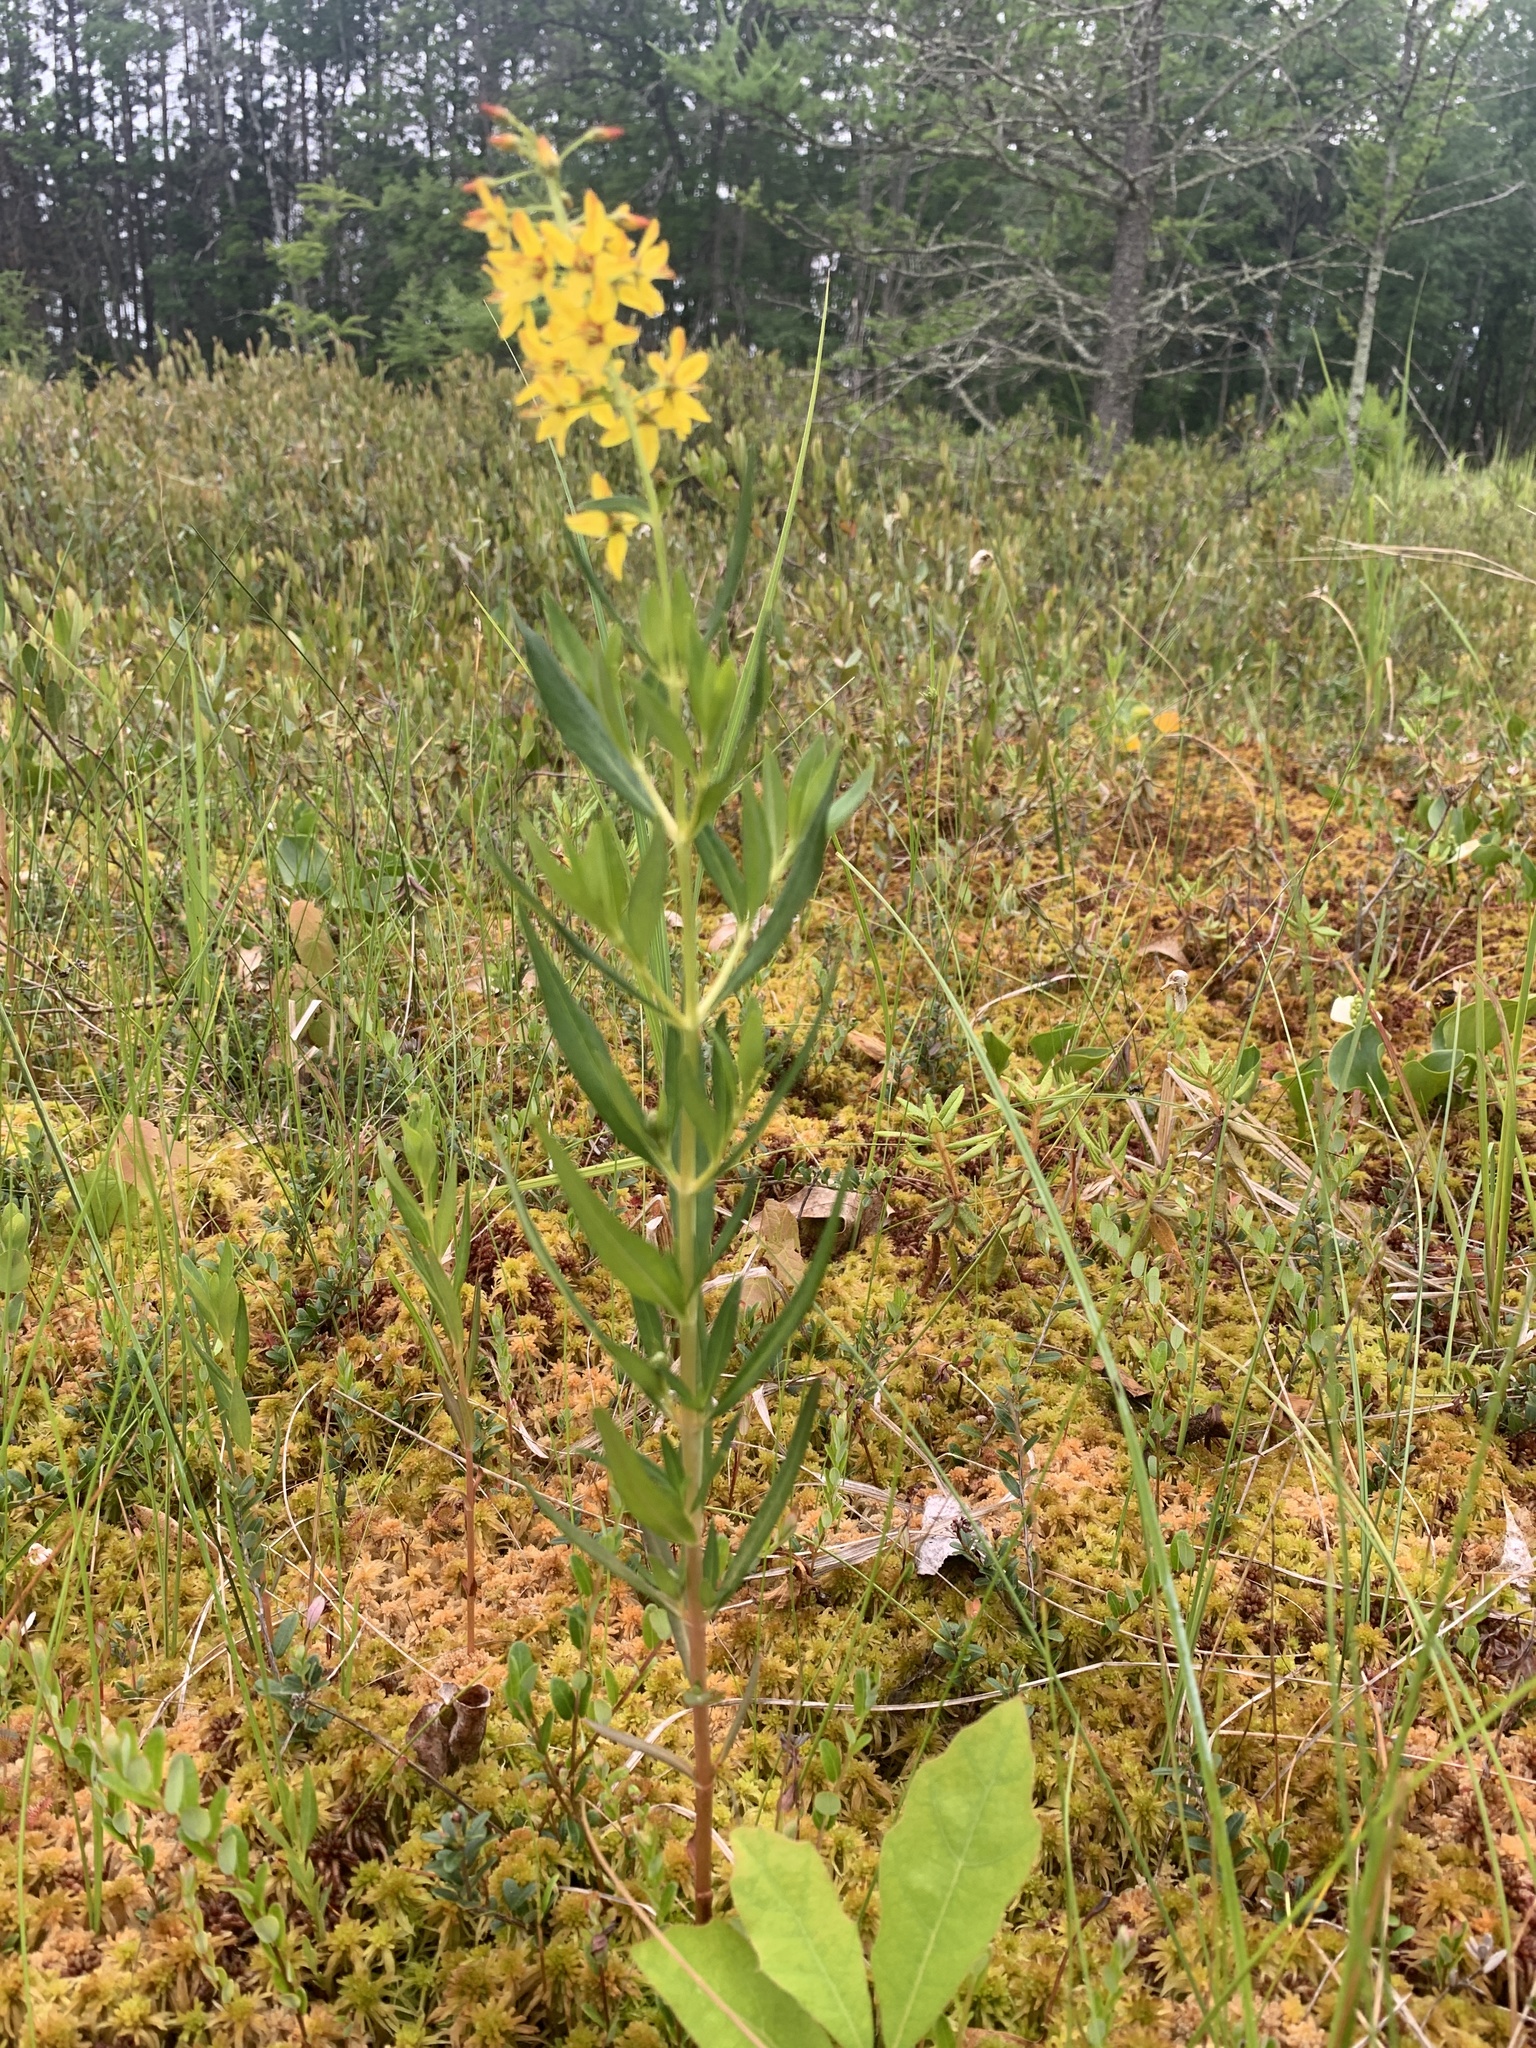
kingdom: Plantae
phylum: Tracheophyta
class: Magnoliopsida
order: Ericales
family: Primulaceae
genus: Lysimachia
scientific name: Lysimachia terrestris
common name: Lake loosestrife
